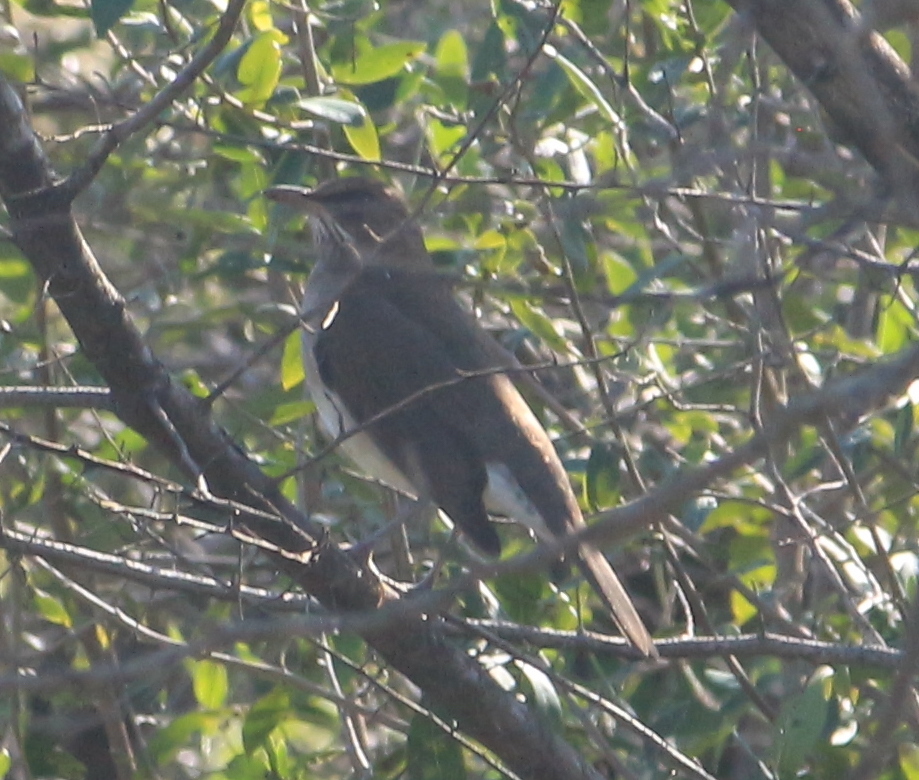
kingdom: Animalia
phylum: Chordata
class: Aves
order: Passeriformes
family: Turdidae
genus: Turdus
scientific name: Turdus amaurochalinus
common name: Creamy-bellied thrush
